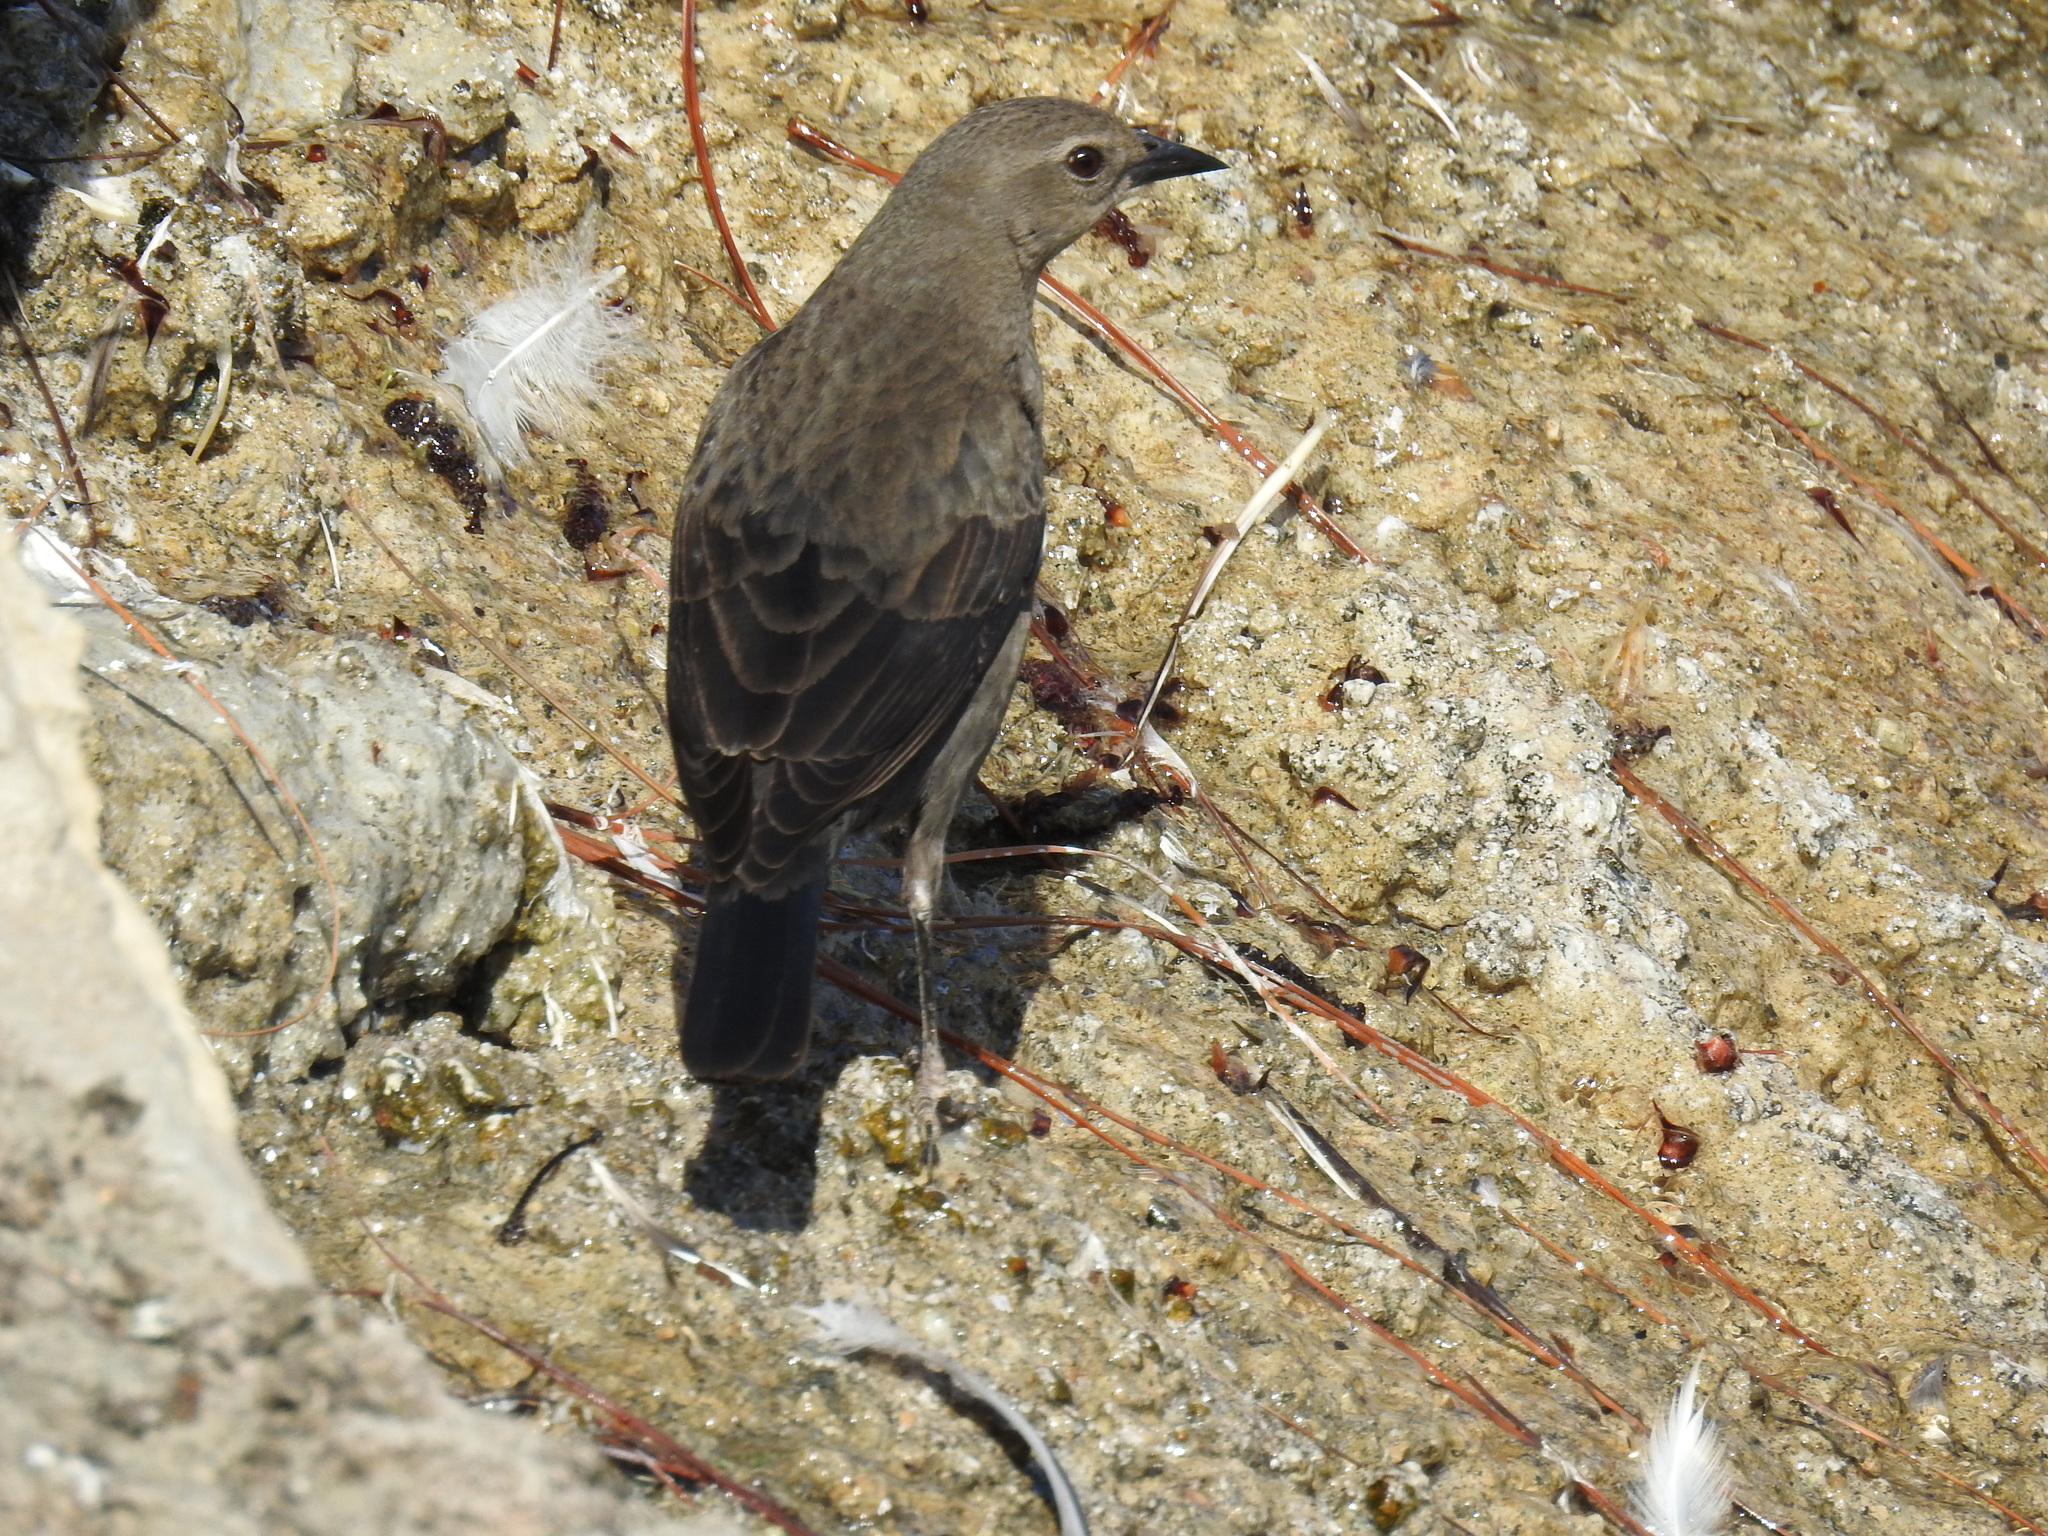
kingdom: Animalia
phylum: Chordata
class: Aves
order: Passeriformes
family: Icteridae
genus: Euphagus
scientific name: Euphagus cyanocephalus
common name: Brewer's blackbird
